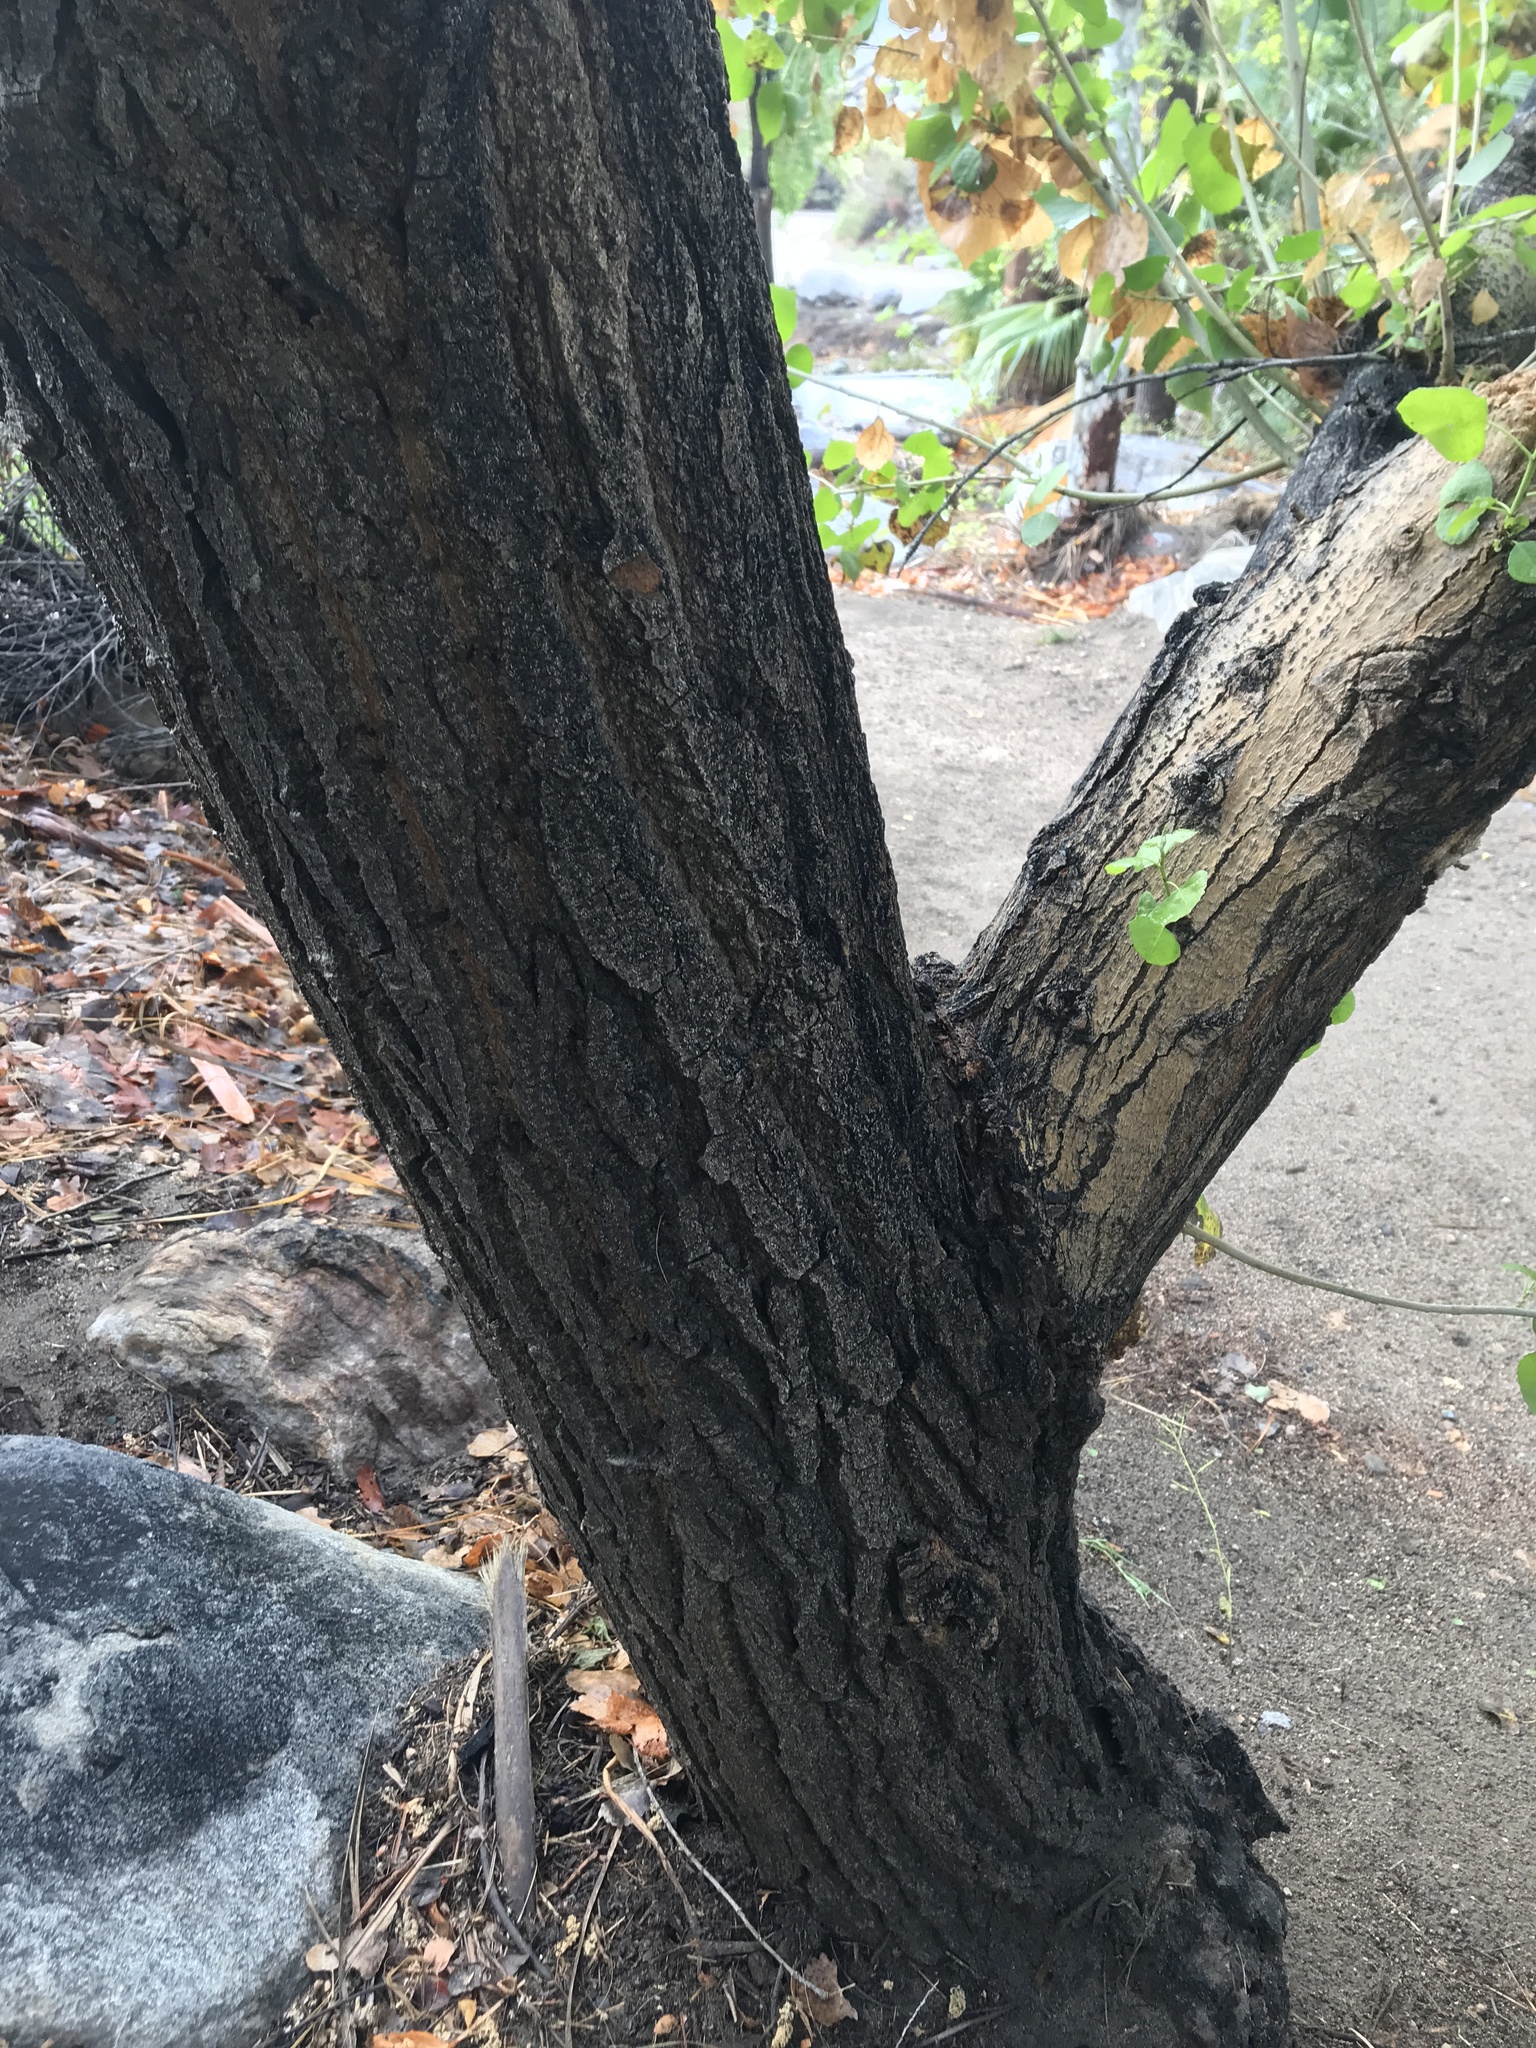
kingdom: Plantae
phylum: Tracheophyta
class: Magnoliopsida
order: Malpighiales
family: Salicaceae
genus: Populus
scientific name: Populus fremontii
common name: Fremont's cottonwood
